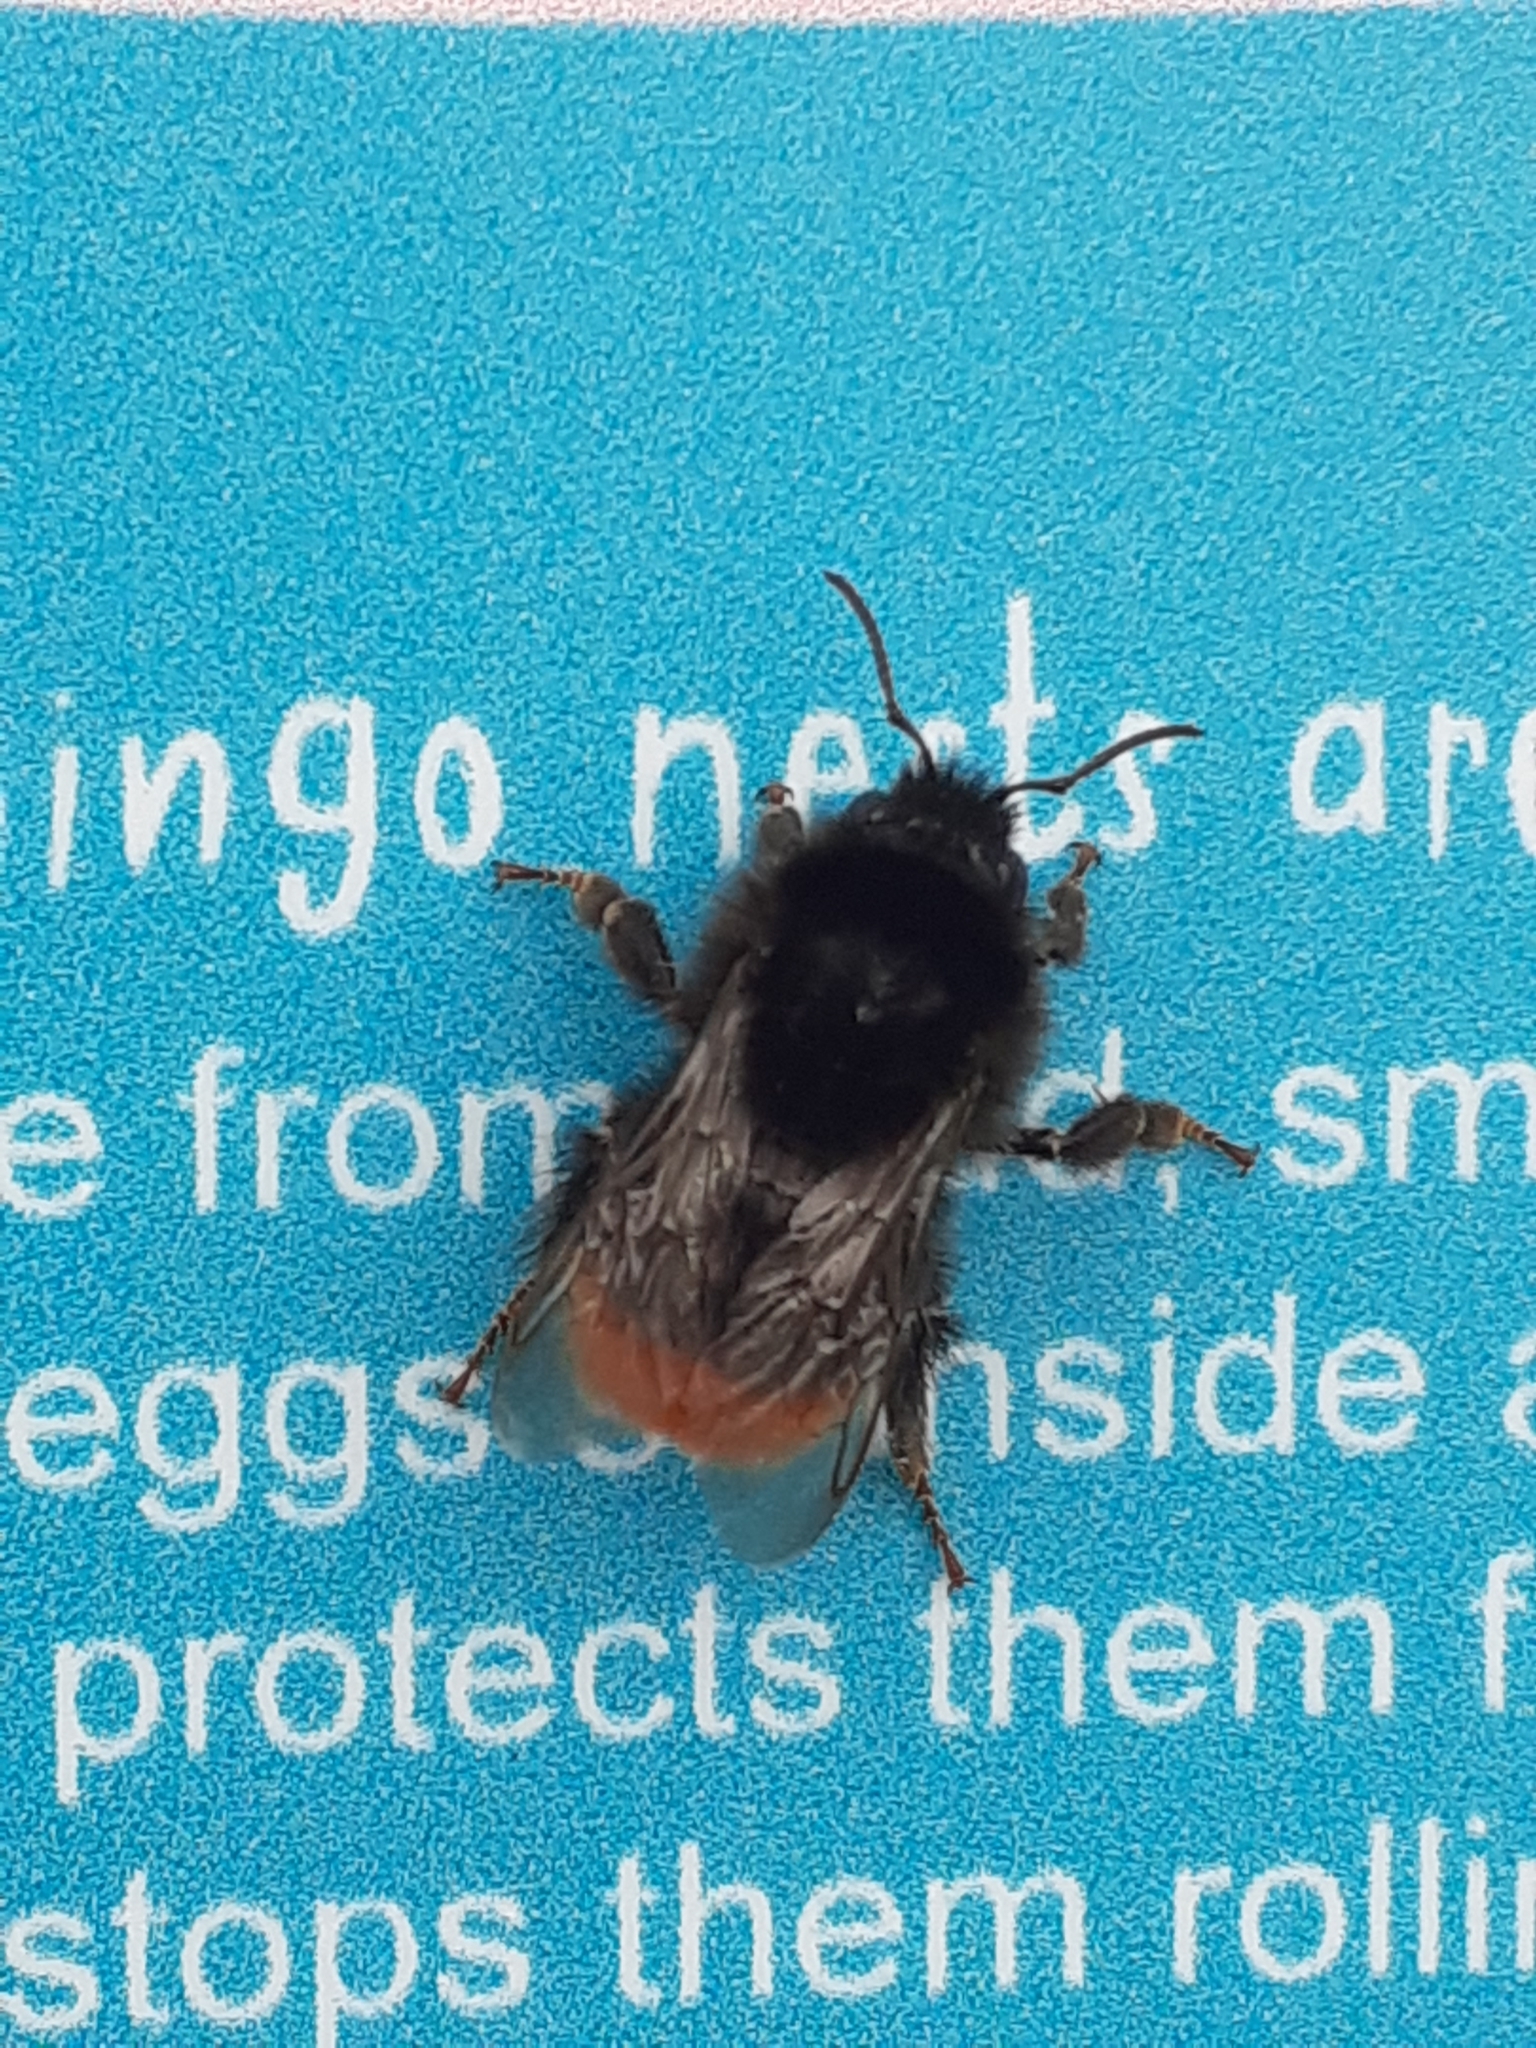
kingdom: Animalia
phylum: Arthropoda
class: Insecta
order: Hymenoptera
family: Apidae
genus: Bombus
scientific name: Bombus lapidarius
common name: Large red-tailed humble-bee
